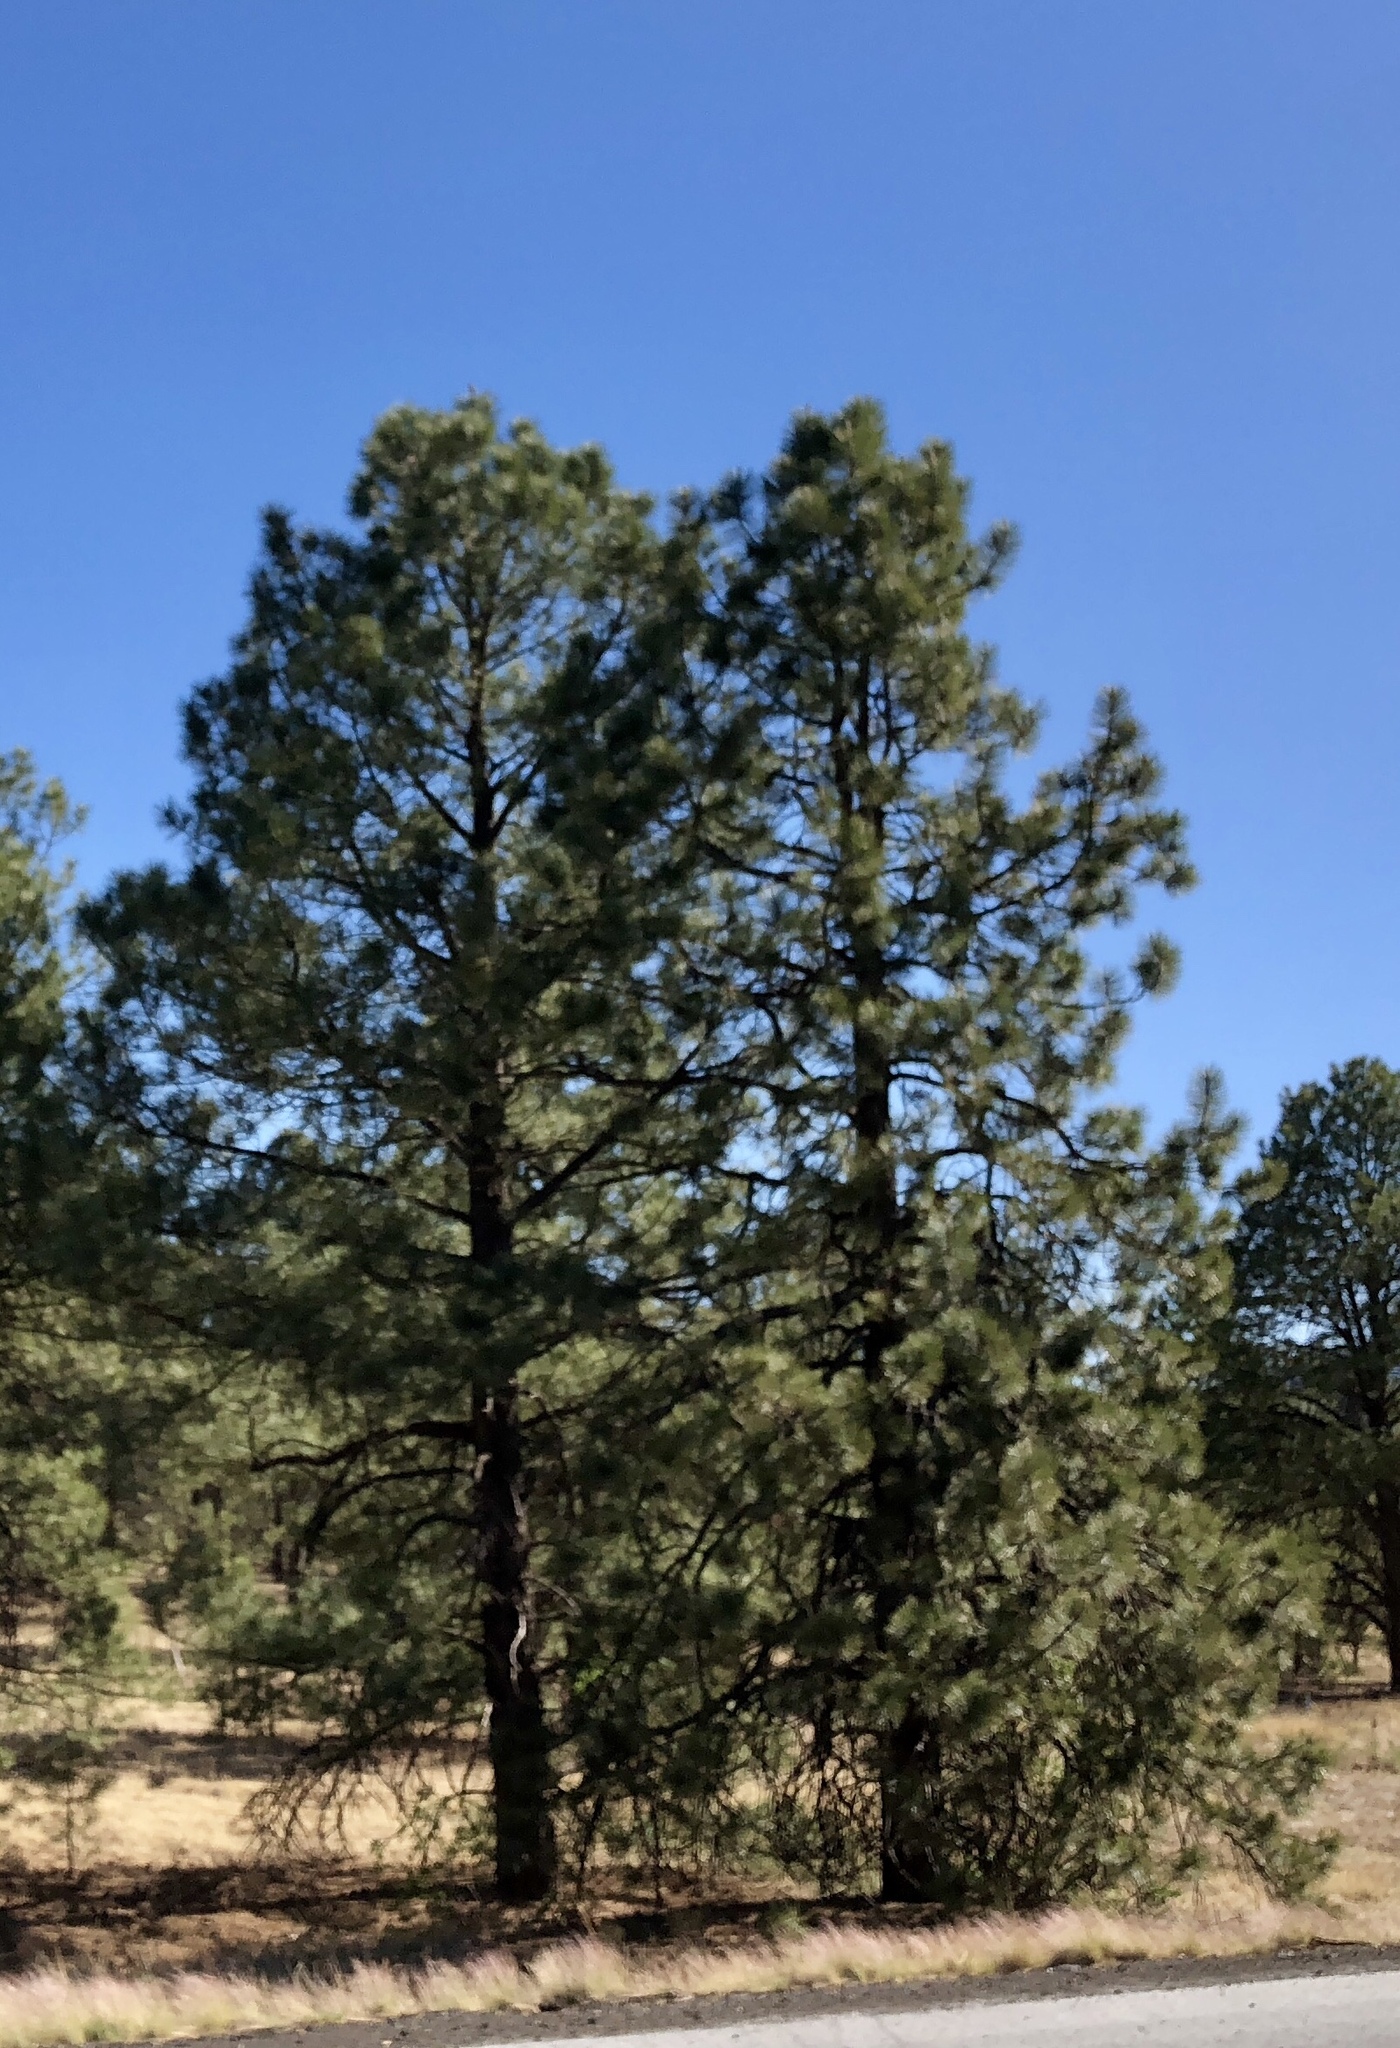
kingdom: Plantae
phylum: Tracheophyta
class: Pinopsida
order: Pinales
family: Pinaceae
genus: Pinus
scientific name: Pinus ponderosa
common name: Western yellow-pine
